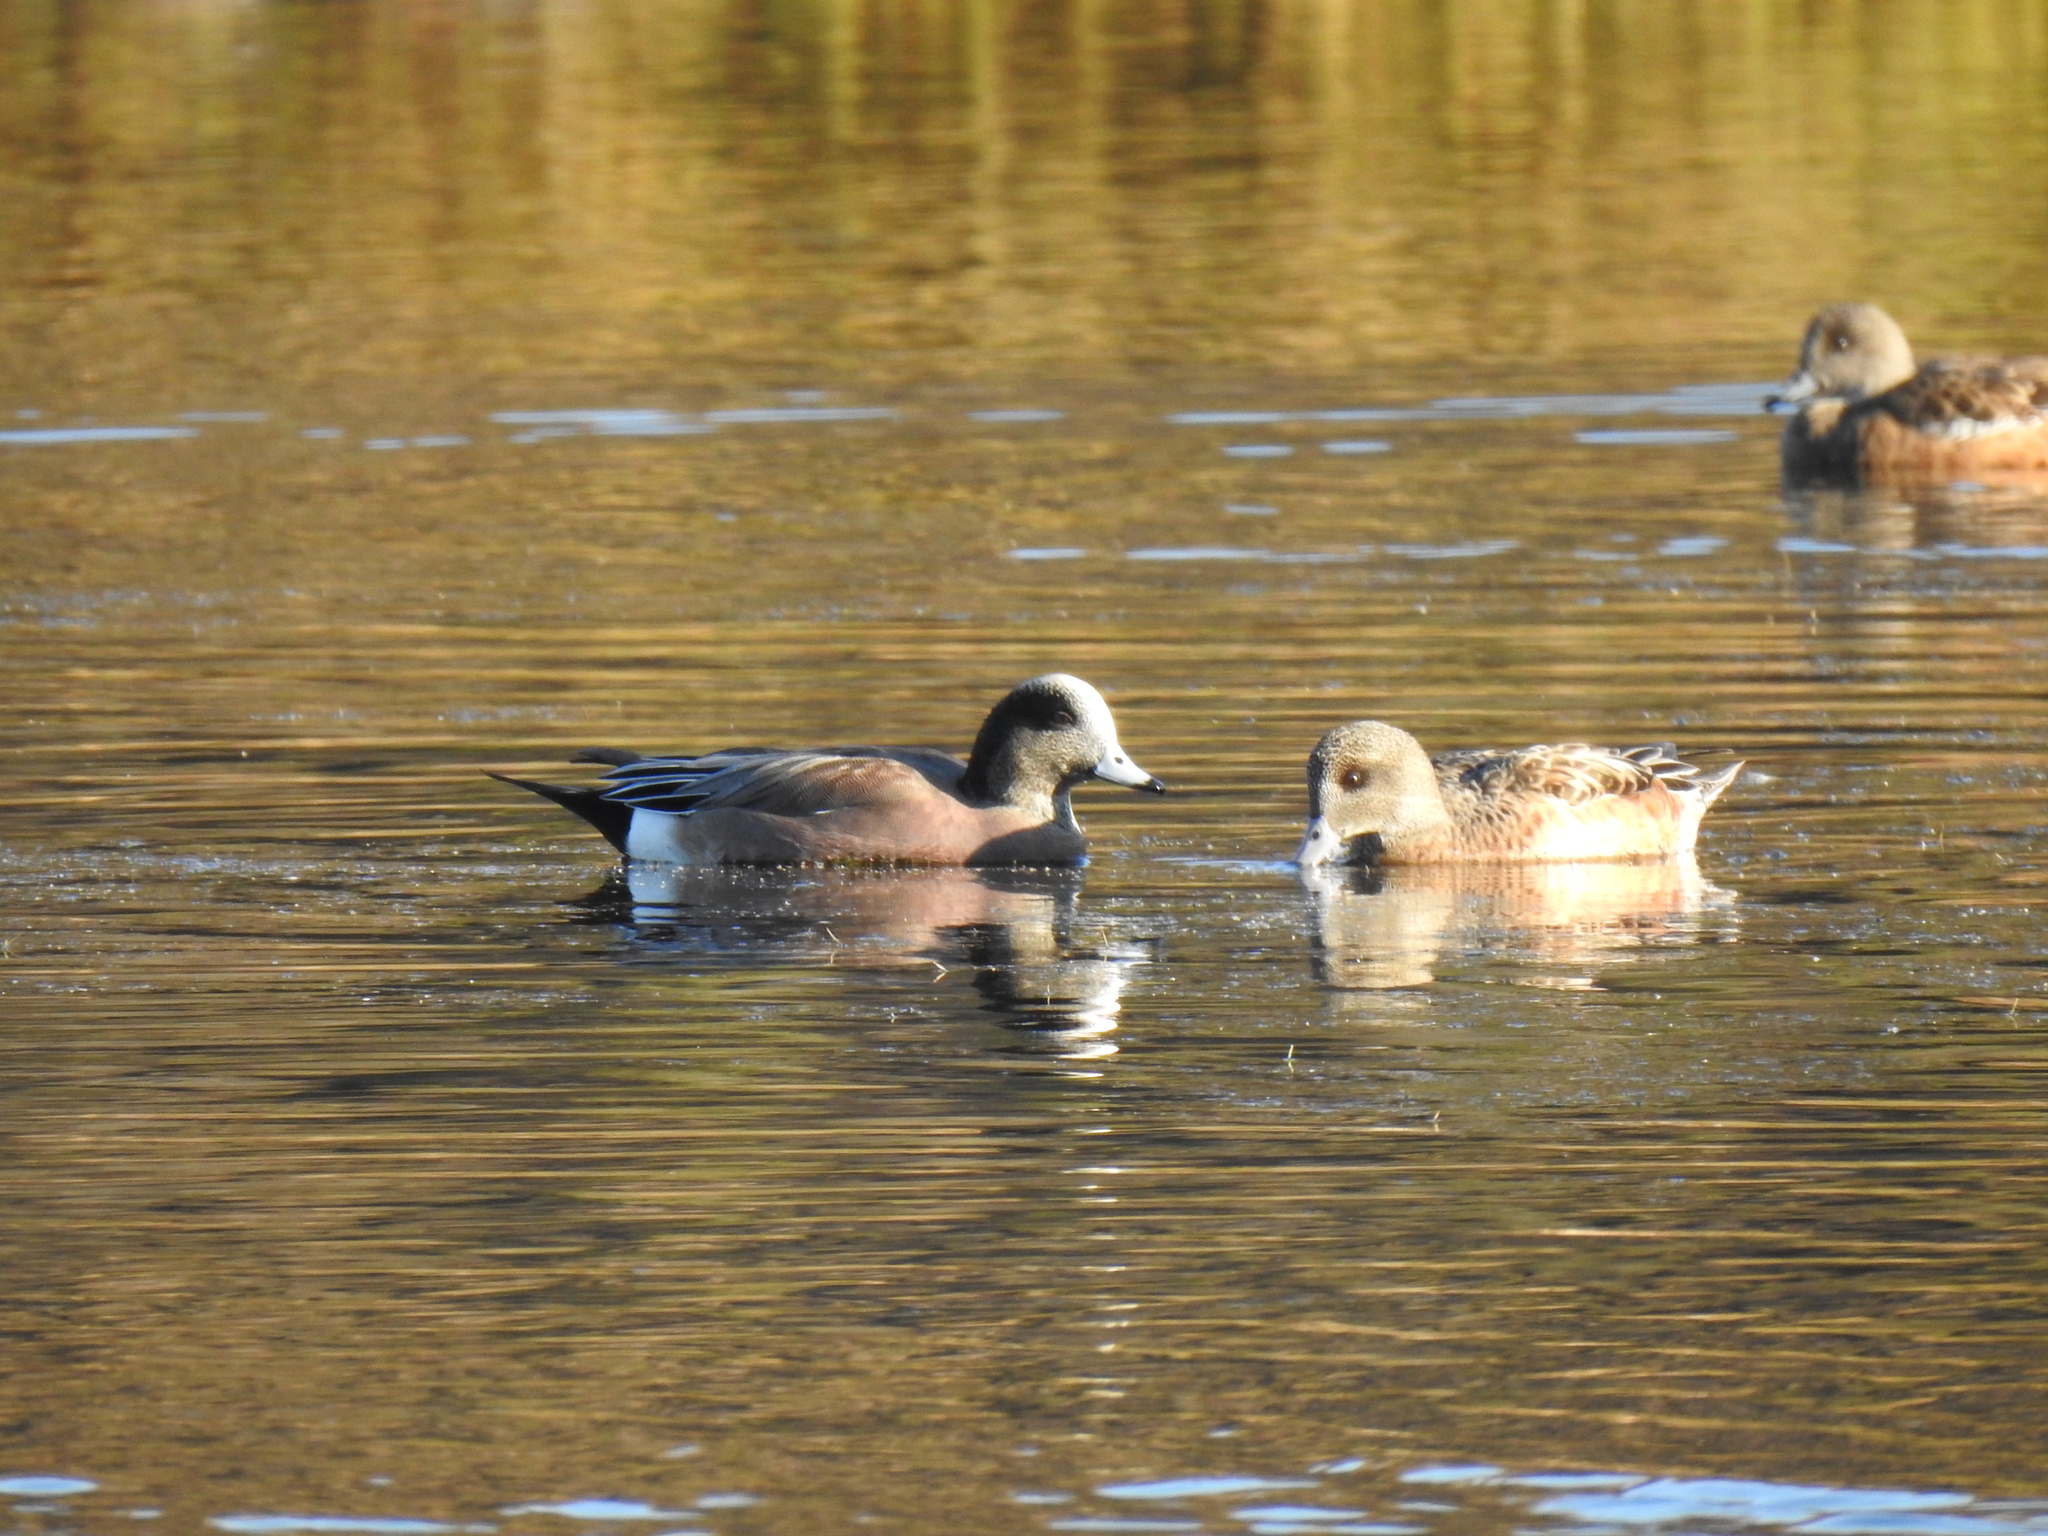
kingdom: Animalia
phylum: Chordata
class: Aves
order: Anseriformes
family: Anatidae
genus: Mareca
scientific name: Mareca americana
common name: American wigeon
